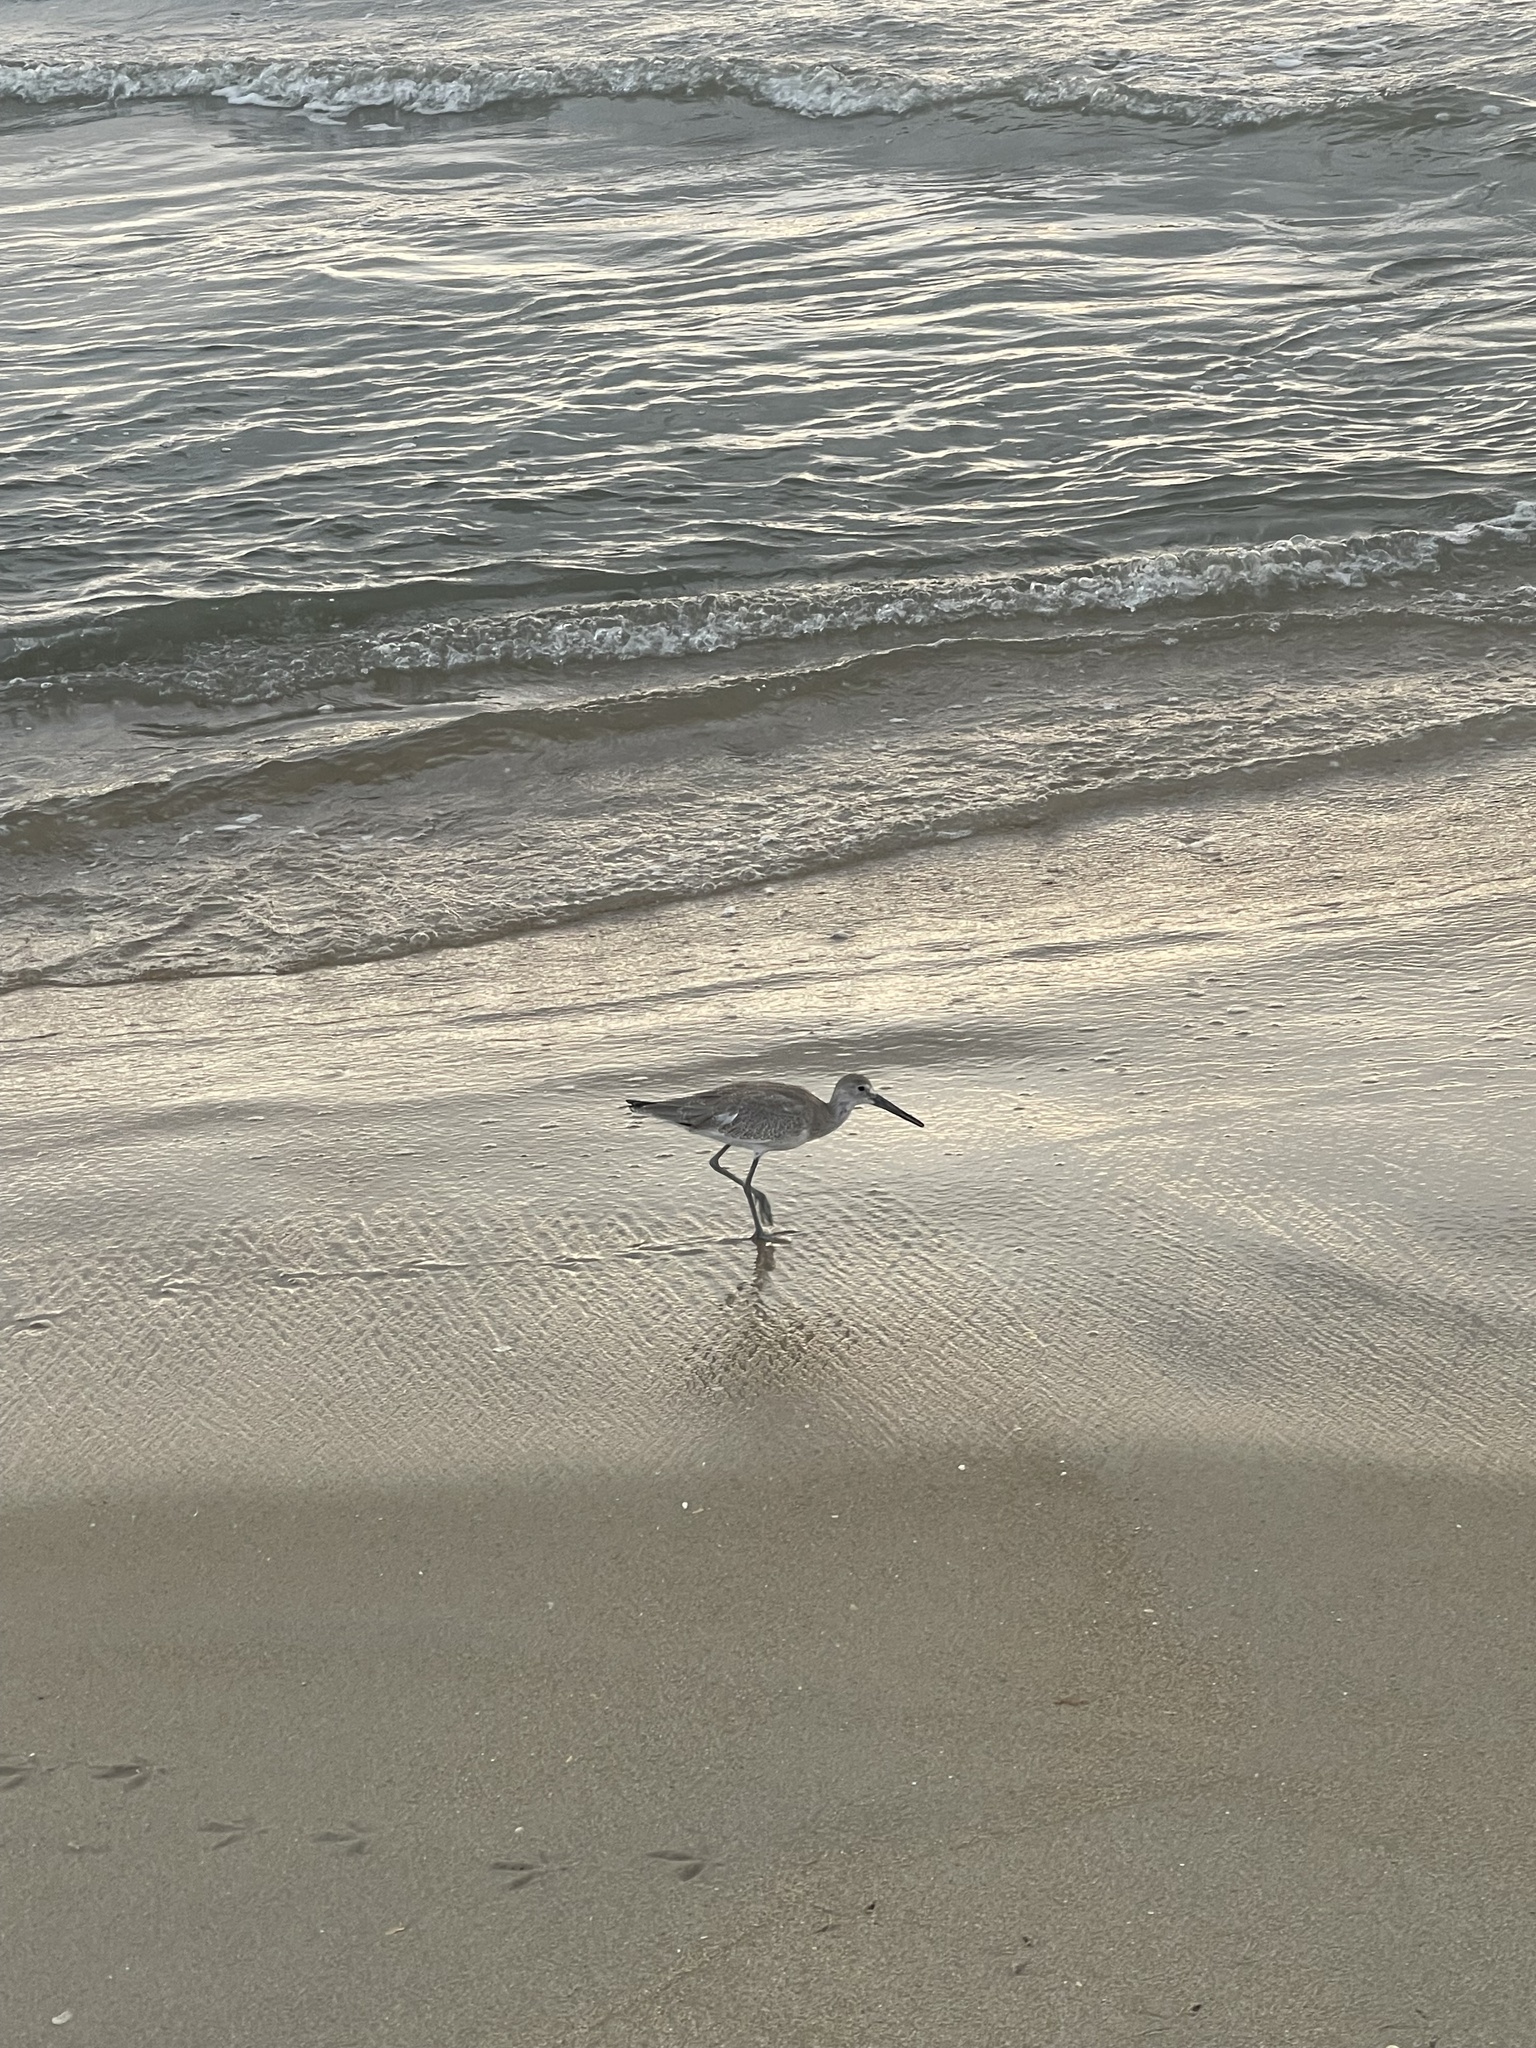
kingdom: Animalia
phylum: Chordata
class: Aves
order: Charadriiformes
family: Scolopacidae
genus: Tringa
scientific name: Tringa semipalmata
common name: Willet
